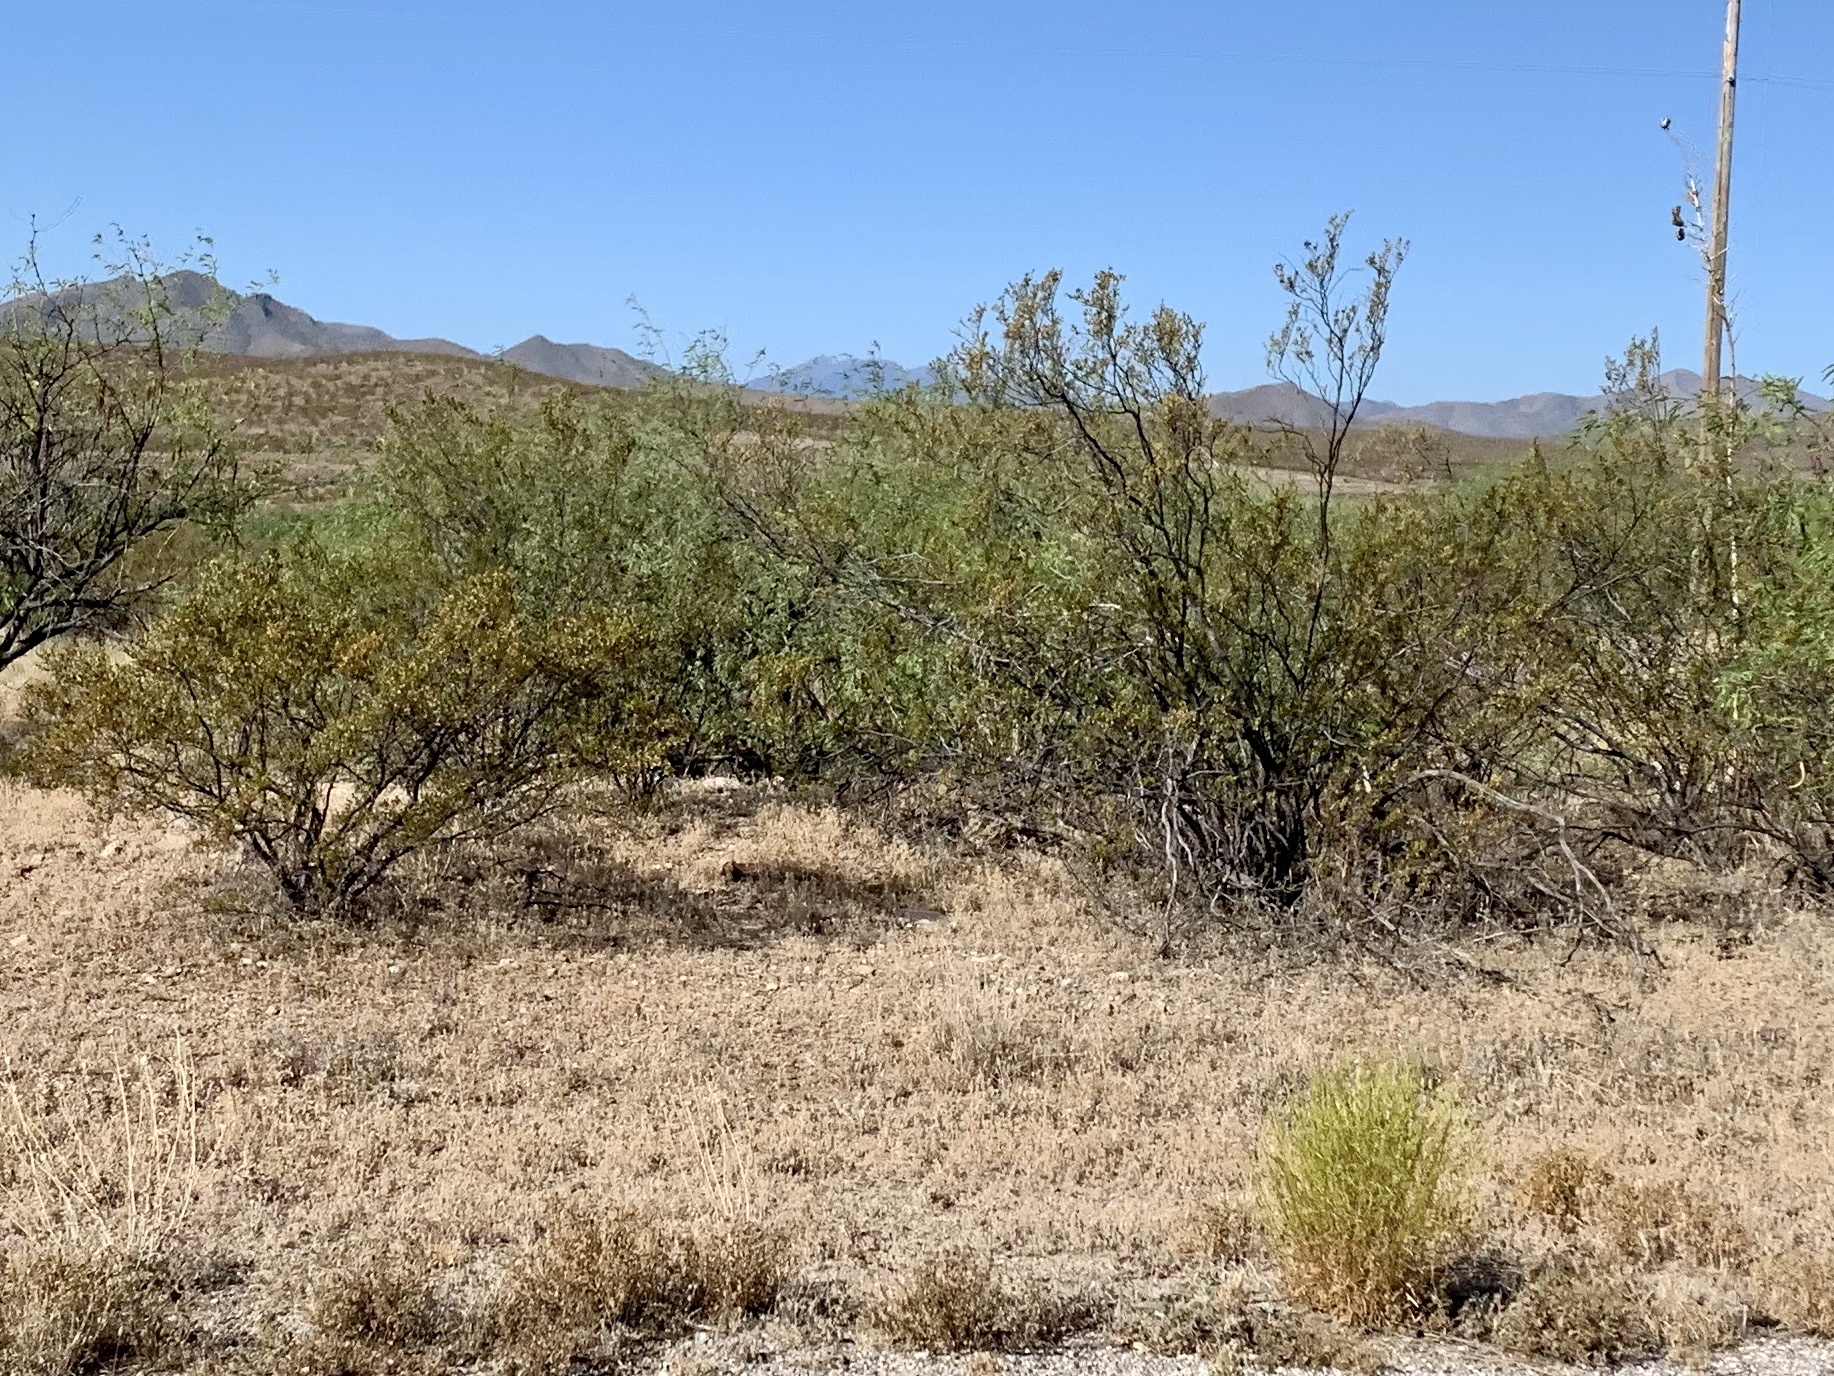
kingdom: Plantae
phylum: Tracheophyta
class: Magnoliopsida
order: Zygophyllales
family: Zygophyllaceae
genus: Larrea
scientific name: Larrea tridentata
